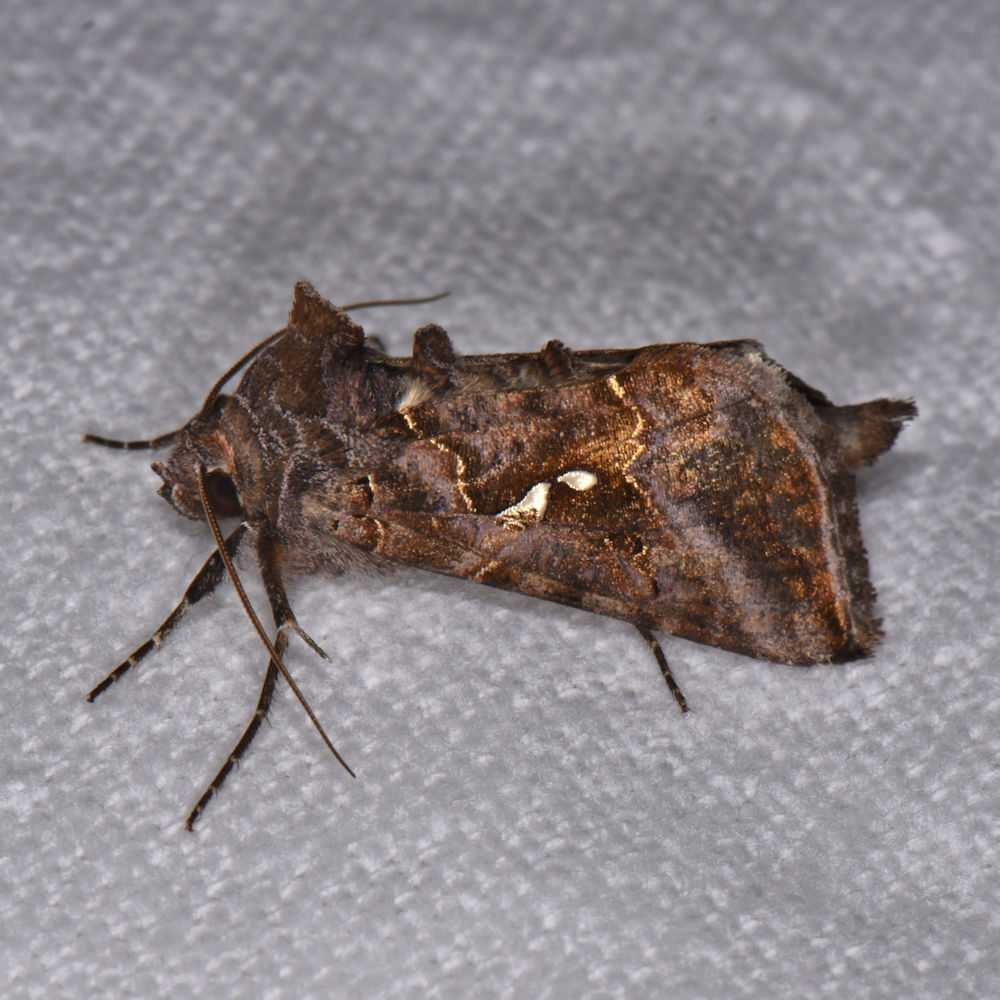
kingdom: Animalia
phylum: Arthropoda
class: Insecta
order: Lepidoptera
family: Noctuidae
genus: Autographa
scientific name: Autographa precationis
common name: Common looper moth
